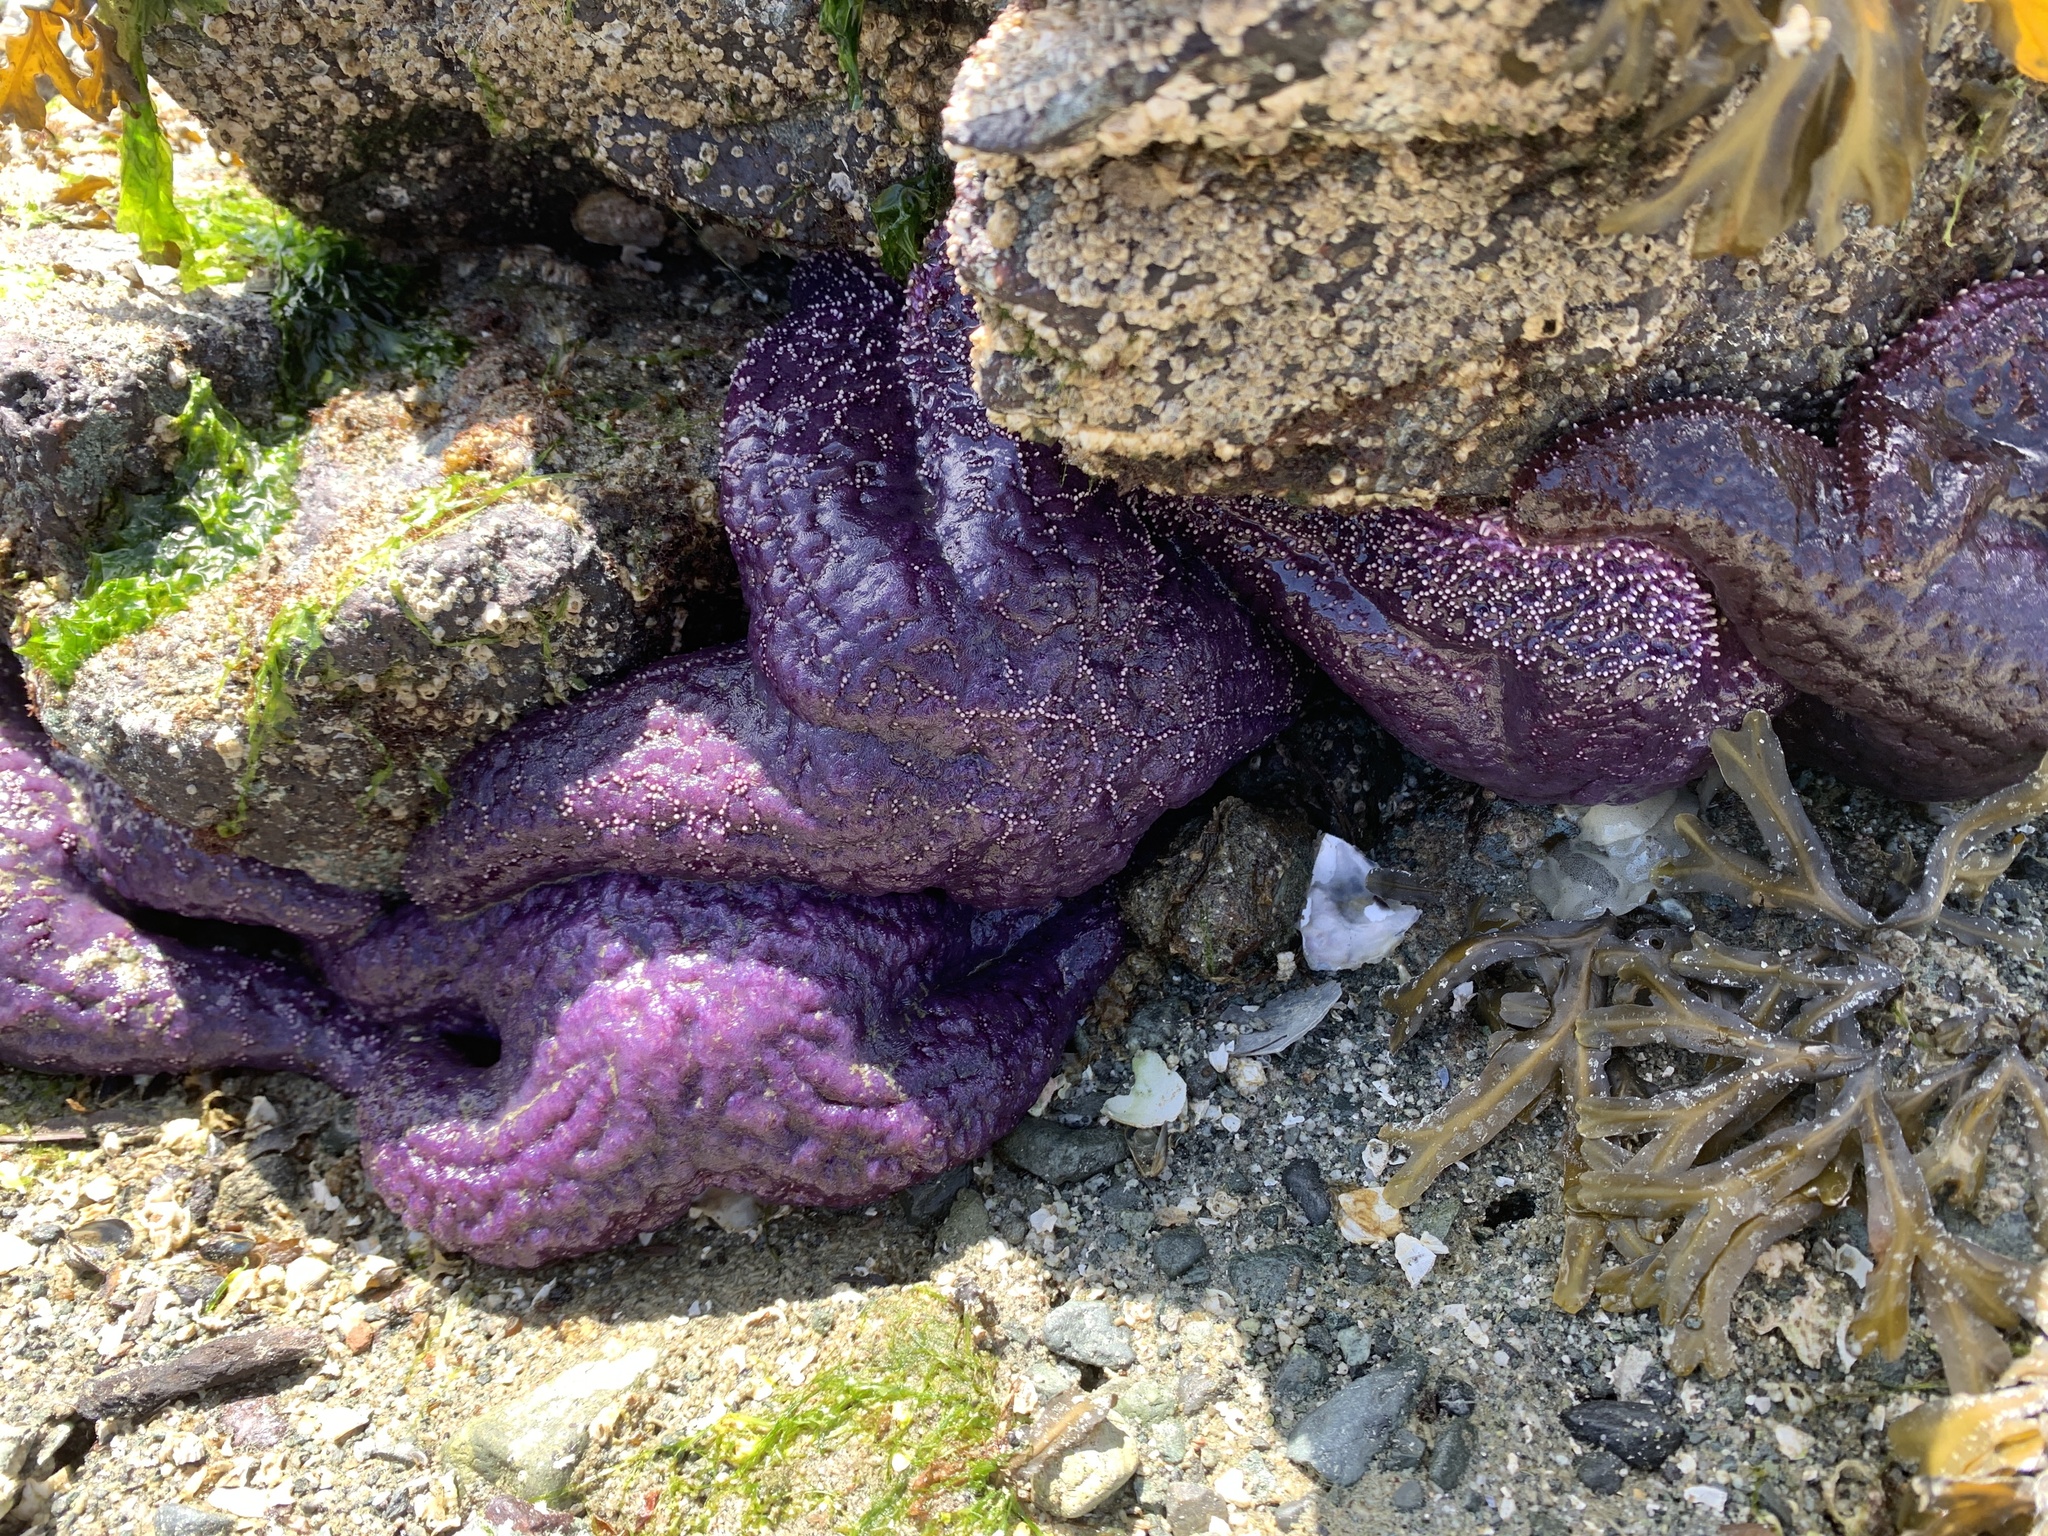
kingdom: Animalia
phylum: Echinodermata
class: Asteroidea
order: Forcipulatida
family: Asteriidae
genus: Pisaster
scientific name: Pisaster ochraceus
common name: Ochre stars
